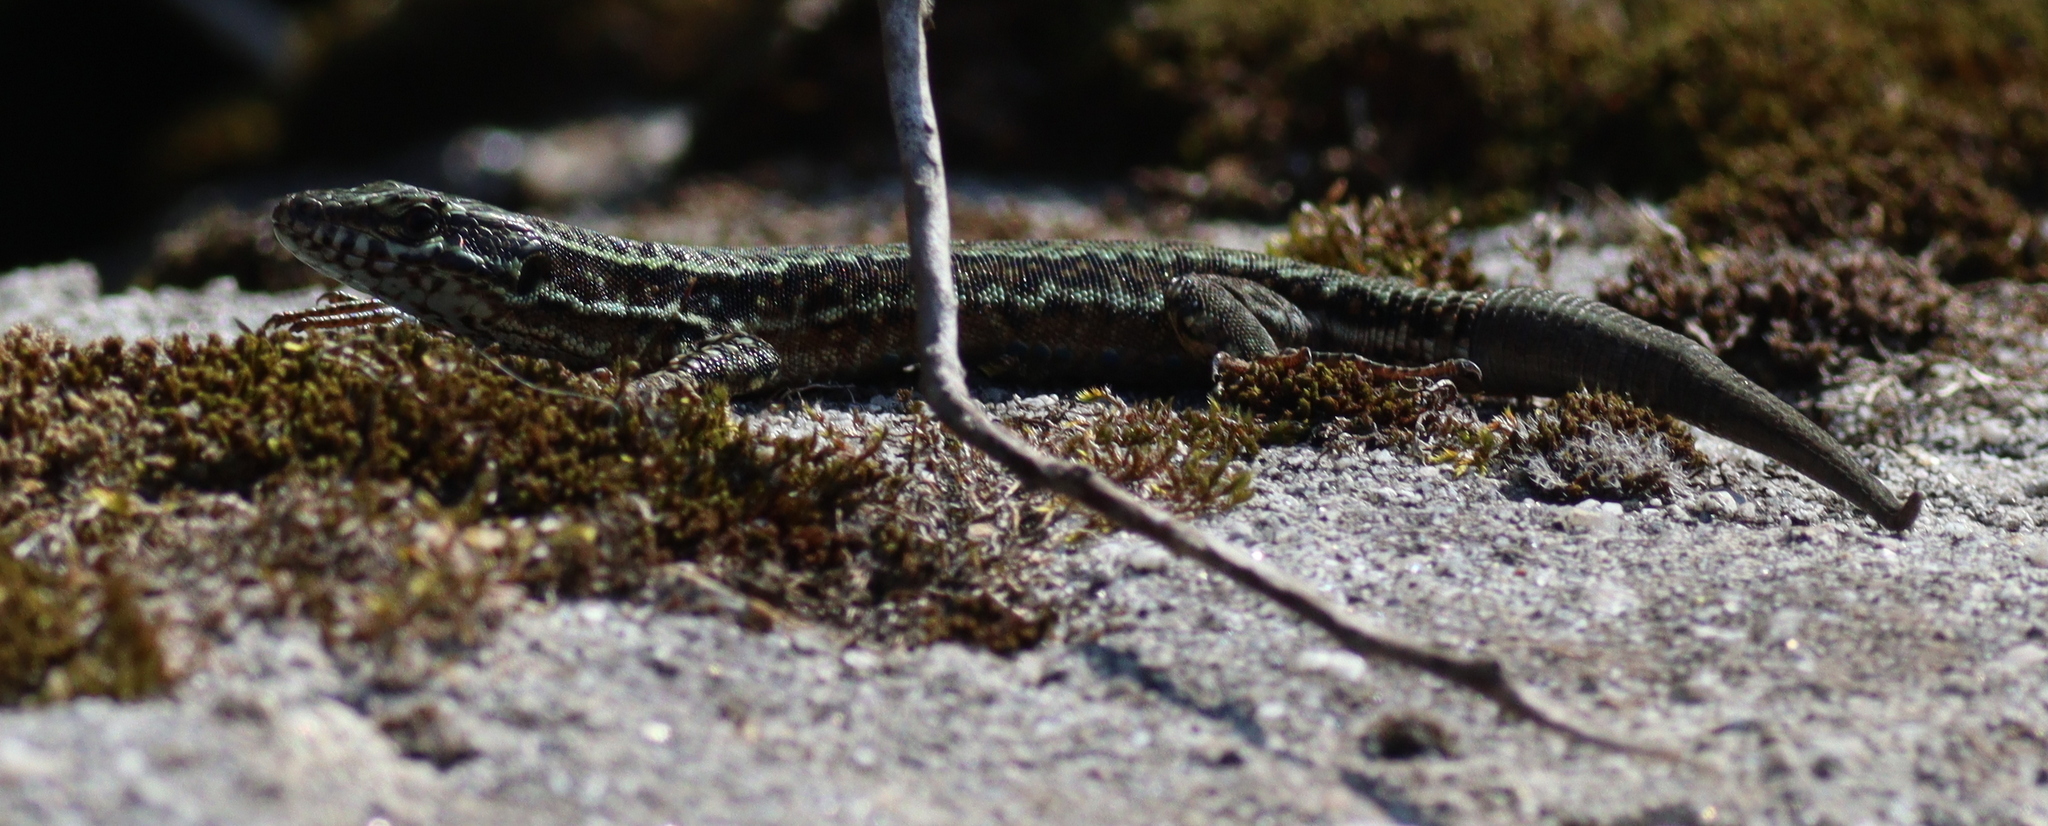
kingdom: Animalia
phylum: Chordata
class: Squamata
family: Lacertidae
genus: Podarcis
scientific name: Podarcis muralis
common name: Common wall lizard
